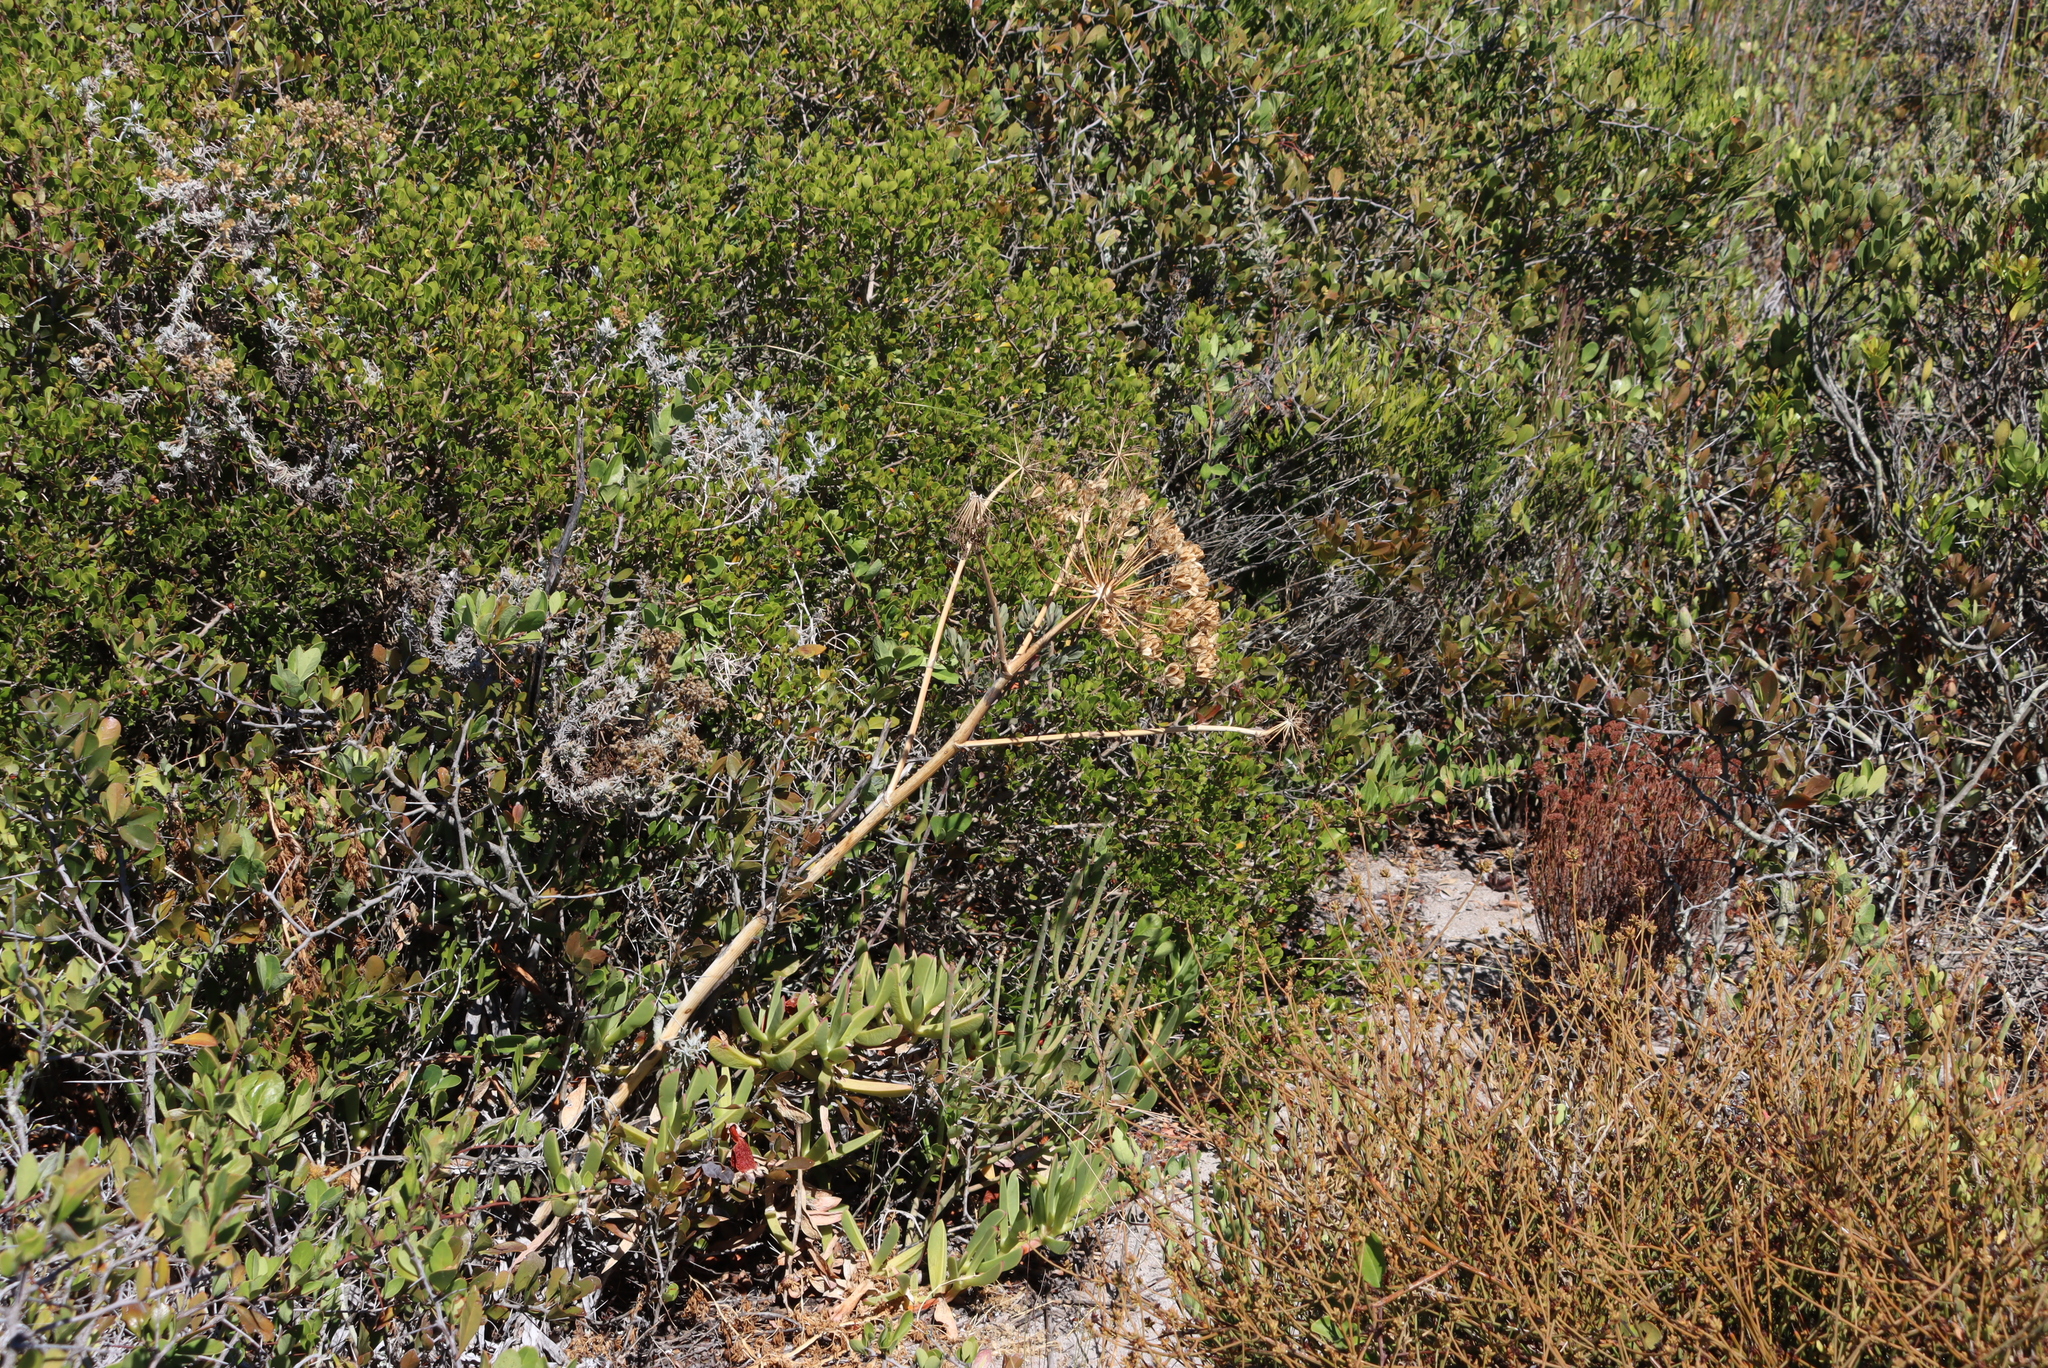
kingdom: Plantae
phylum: Tracheophyta
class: Magnoliopsida
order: Apiales
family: Apiaceae
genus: Cynorhiza
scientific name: Cynorhiza typica
